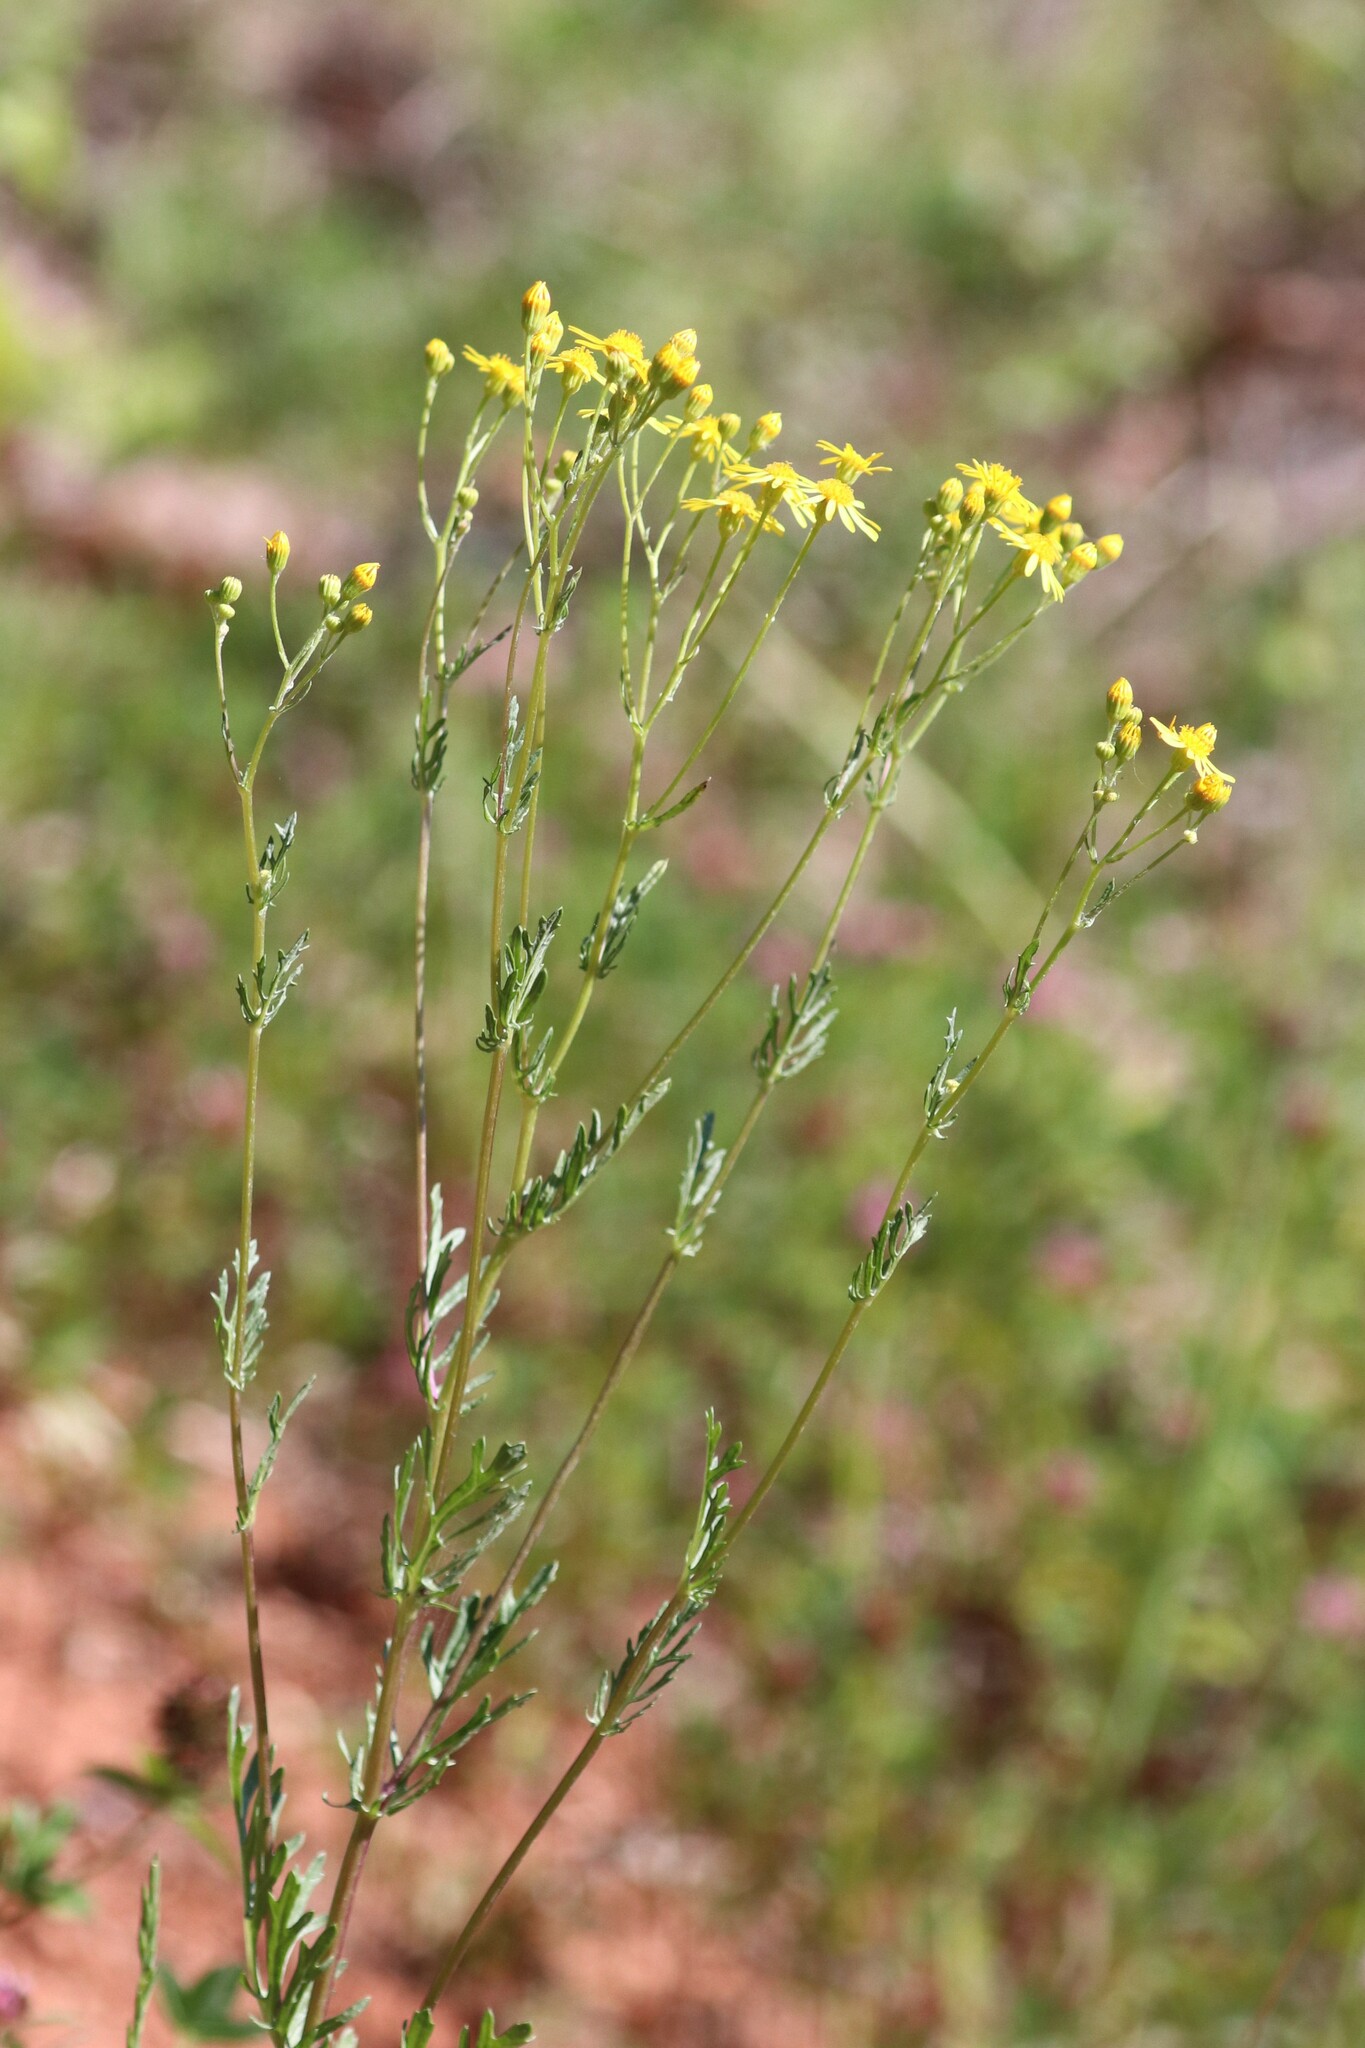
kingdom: Plantae
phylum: Tracheophyta
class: Magnoliopsida
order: Asterales
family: Asteraceae
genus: Jacobaea
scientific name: Jacobaea vulgaris
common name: Stinking willie
